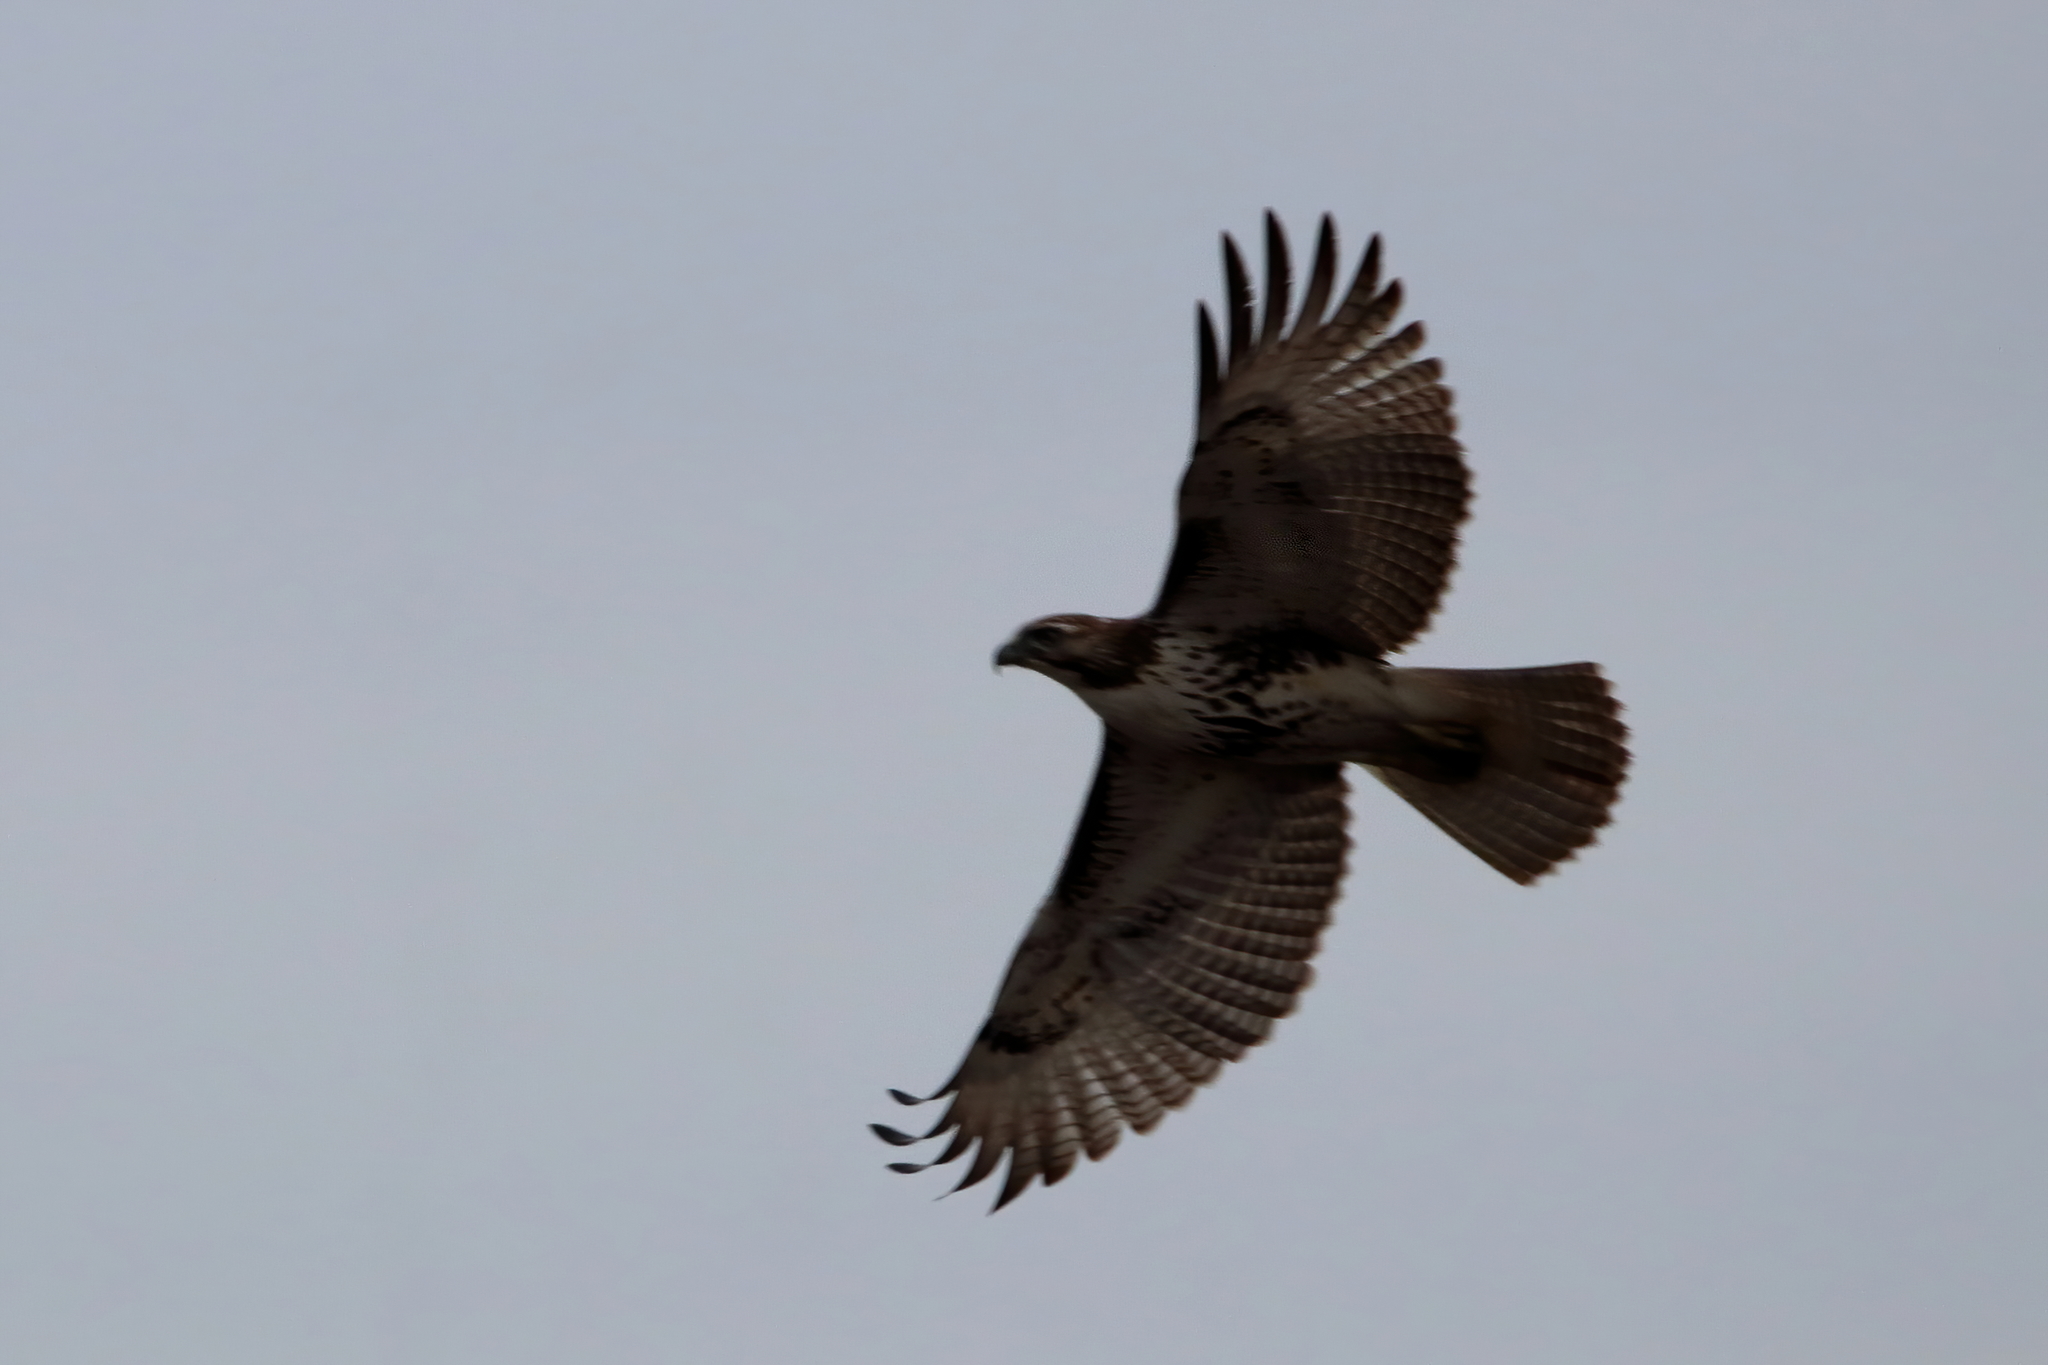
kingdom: Animalia
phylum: Chordata
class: Aves
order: Accipitriformes
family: Accipitridae
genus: Buteo
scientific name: Buteo jamaicensis
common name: Red-tailed hawk
